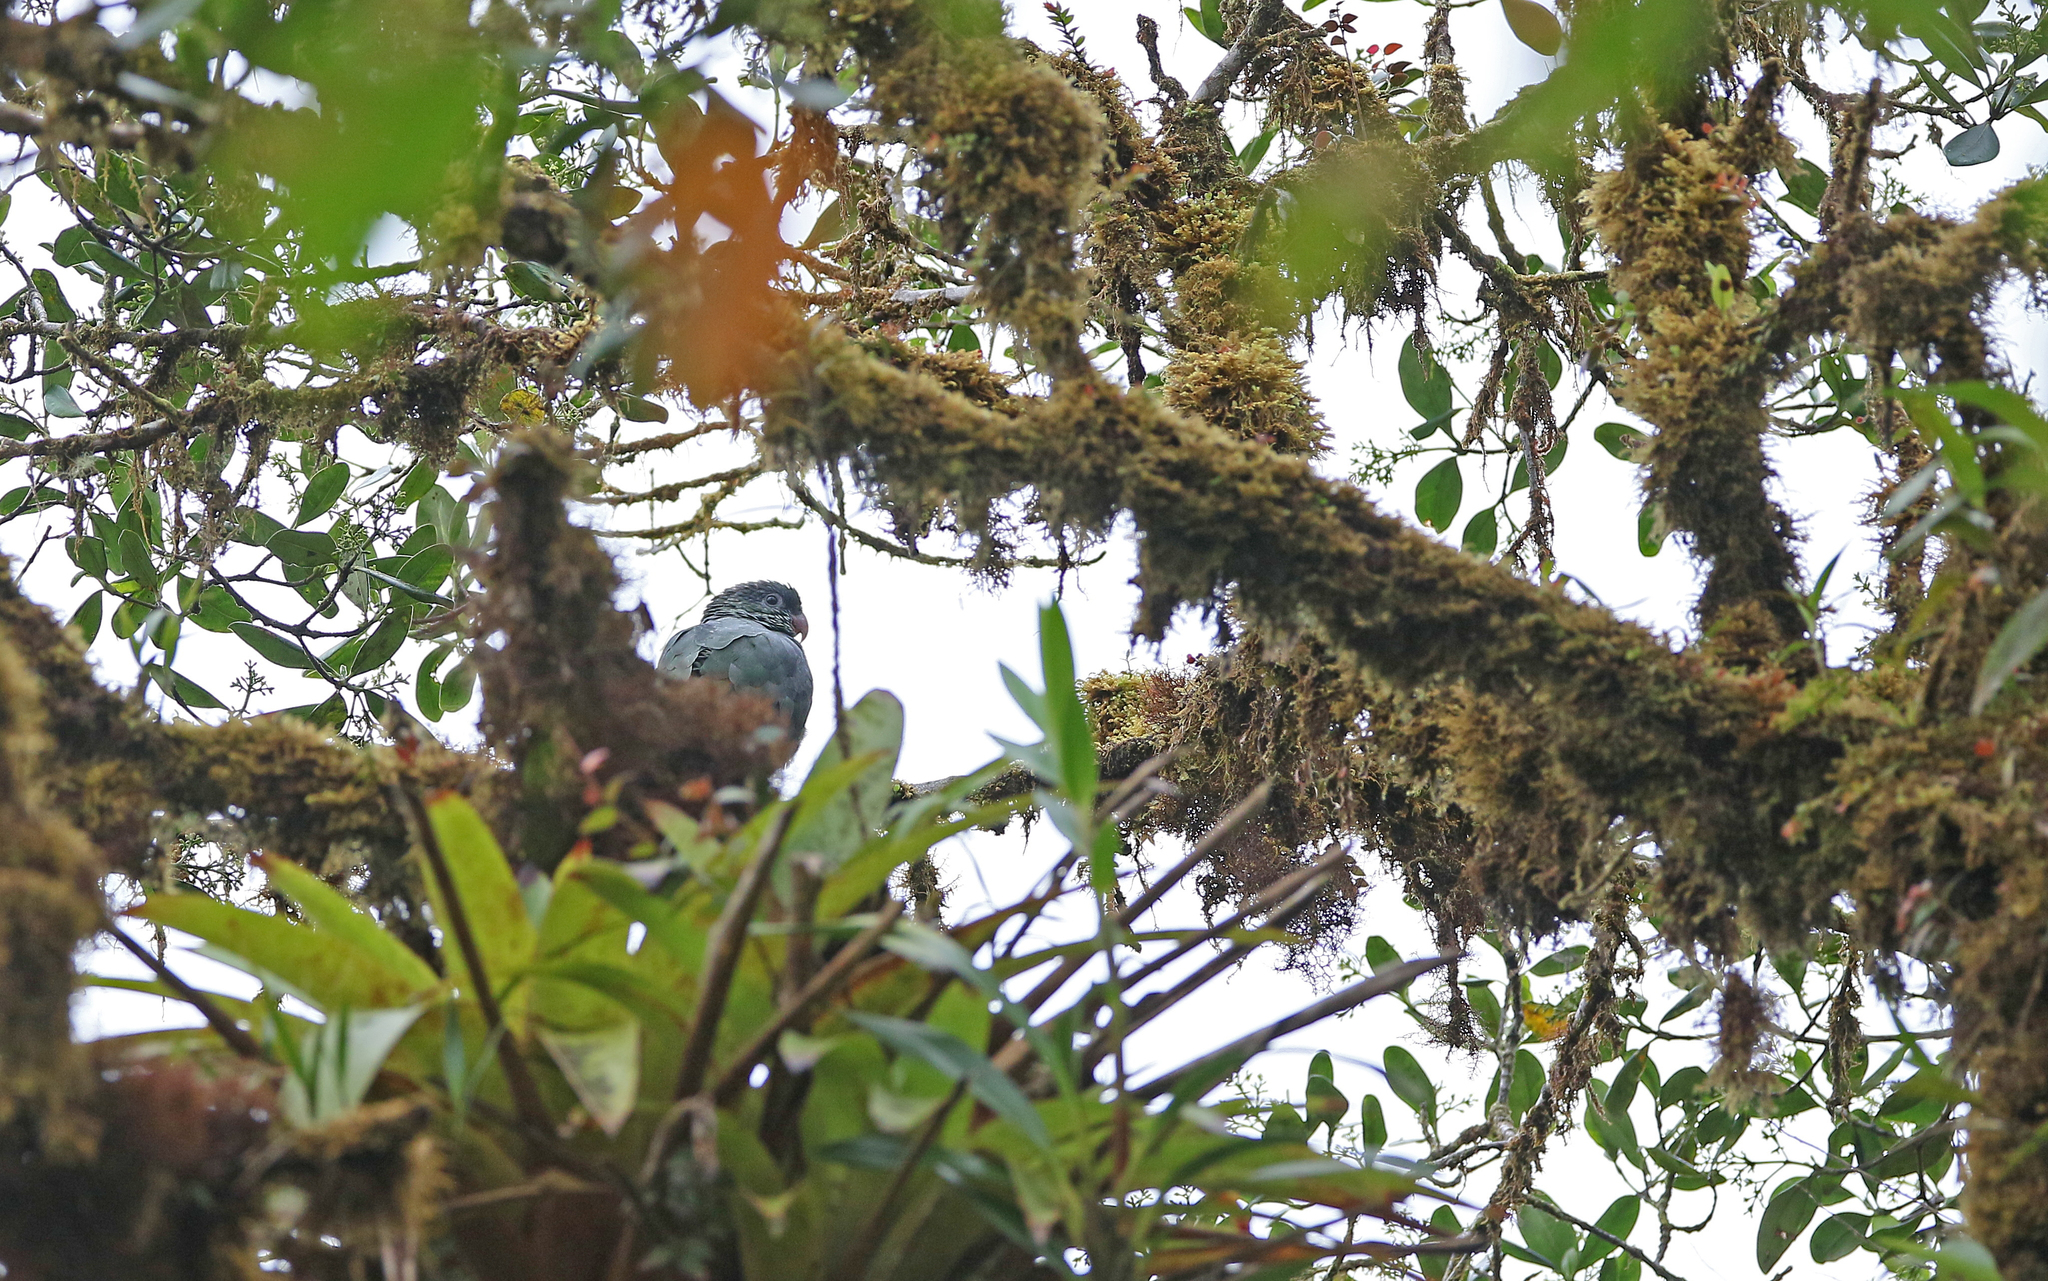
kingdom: Animalia
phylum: Chordata
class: Aves
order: Psittaciformes
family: Psittacidae
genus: Pionus
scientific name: Pionus sordidus
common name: Red-billed parrot
